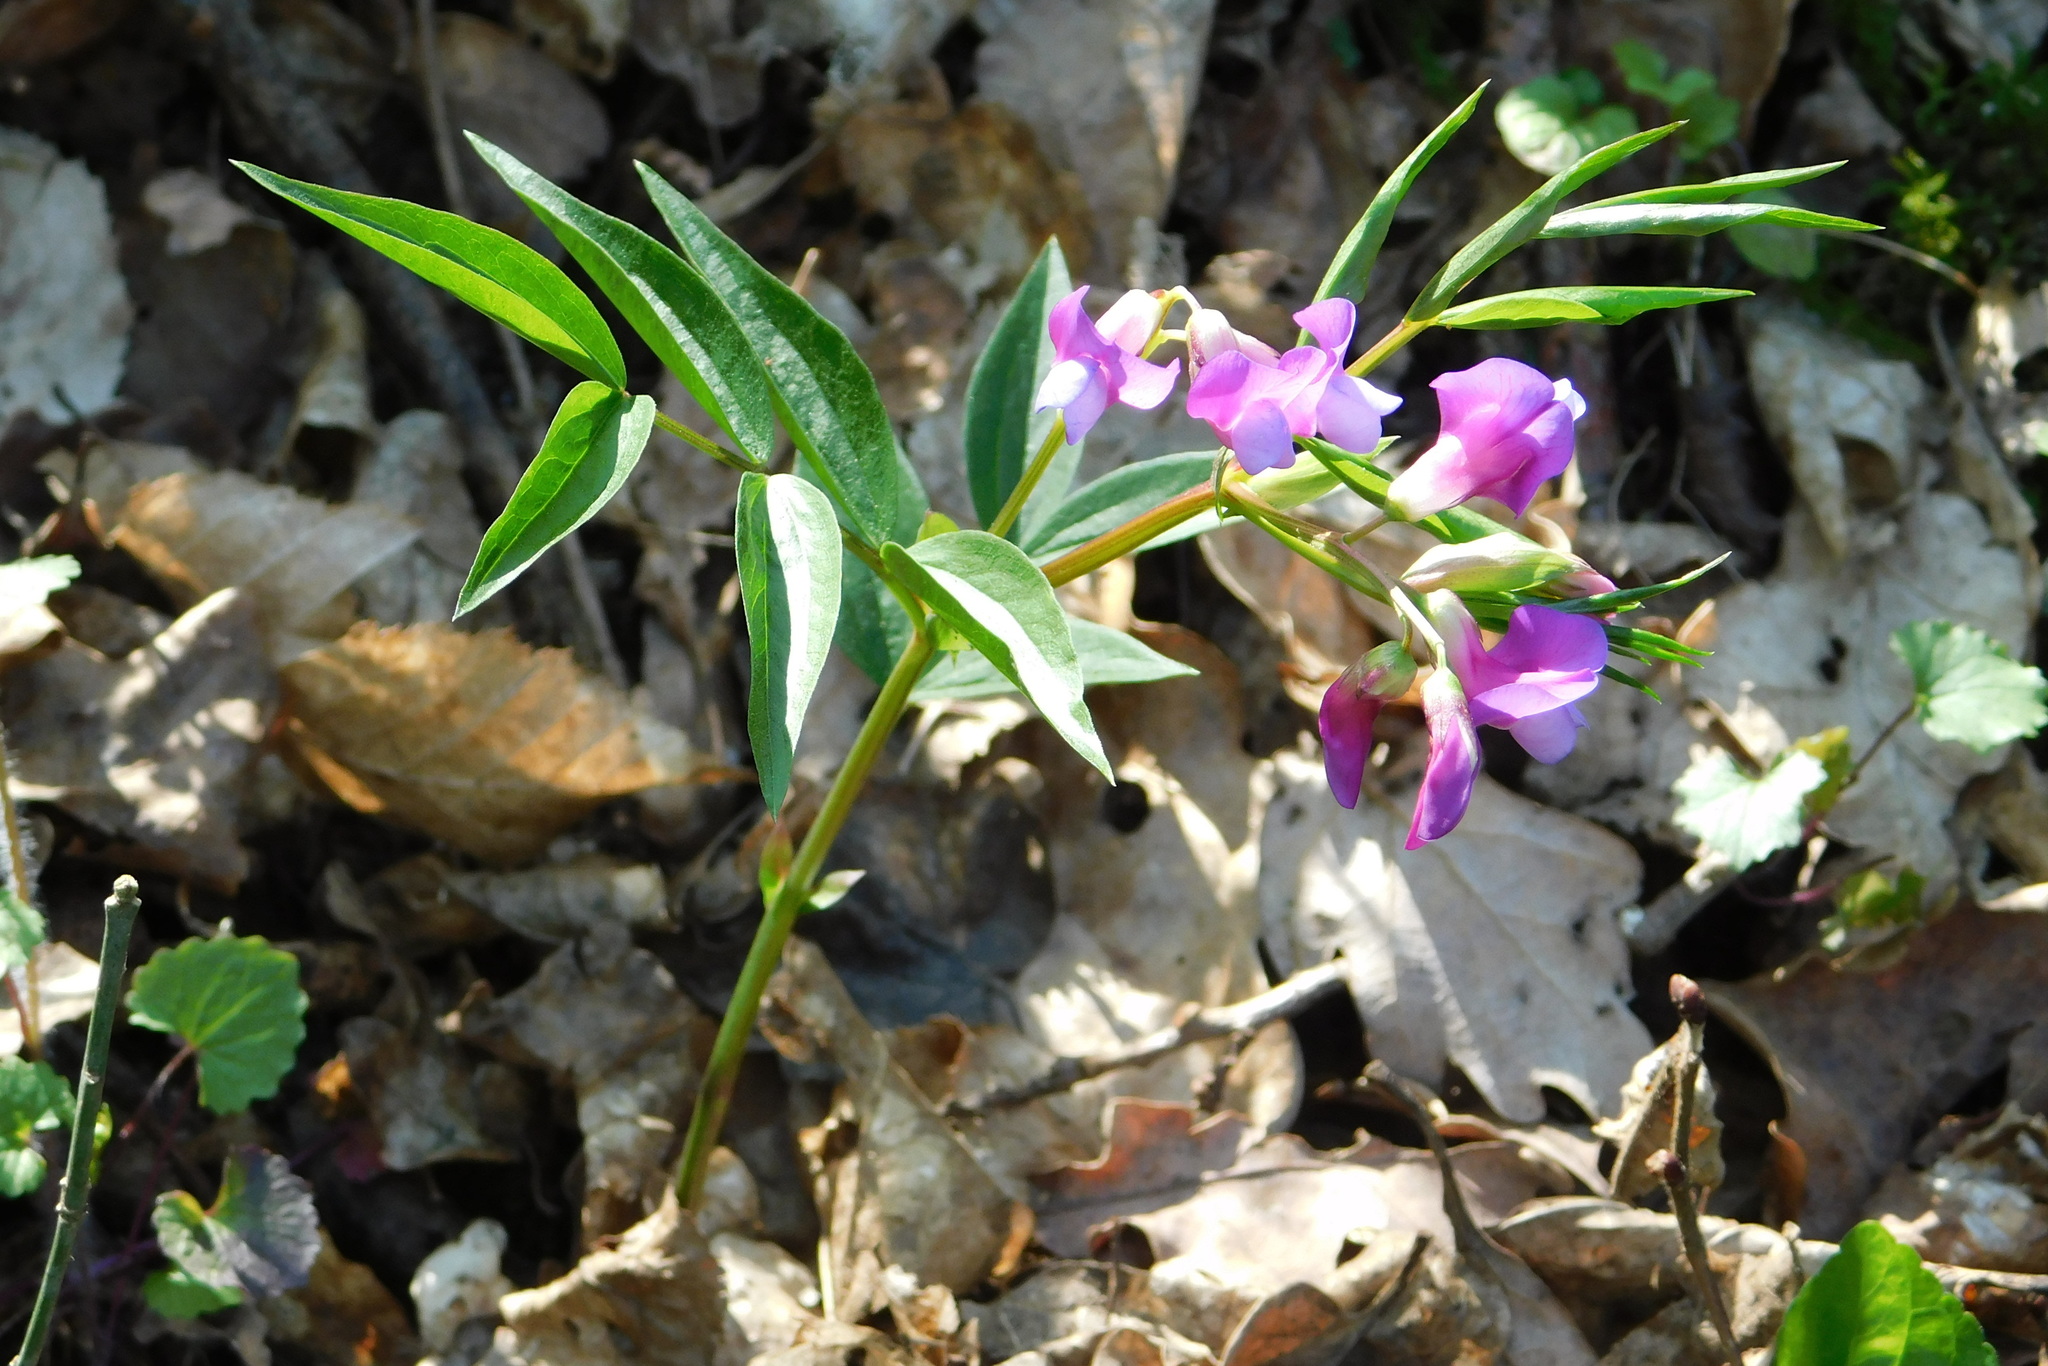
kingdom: Plantae
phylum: Tracheophyta
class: Magnoliopsida
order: Fabales
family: Fabaceae
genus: Lathyrus
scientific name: Lathyrus vernus
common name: Spring pea
